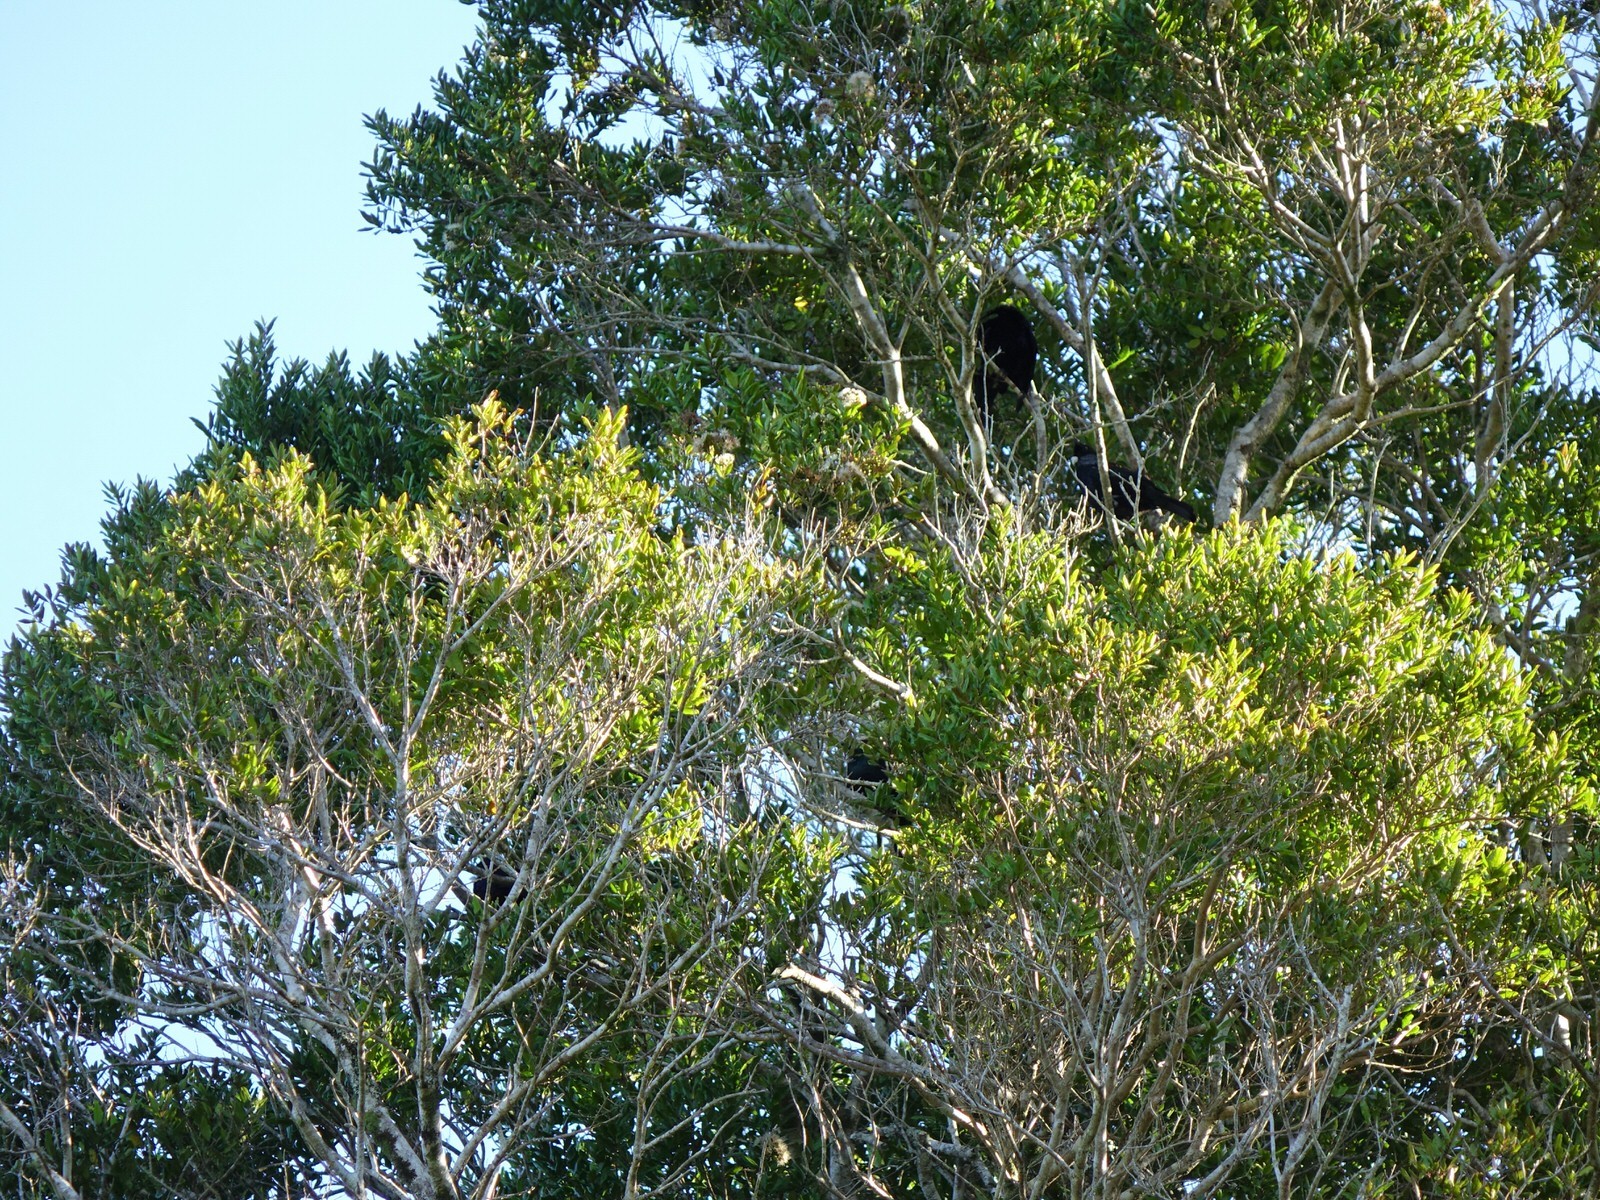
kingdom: Plantae
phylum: Tracheophyta
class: Magnoliopsida
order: Myrtales
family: Myrtaceae
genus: Syzygium
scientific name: Syzygium maire
